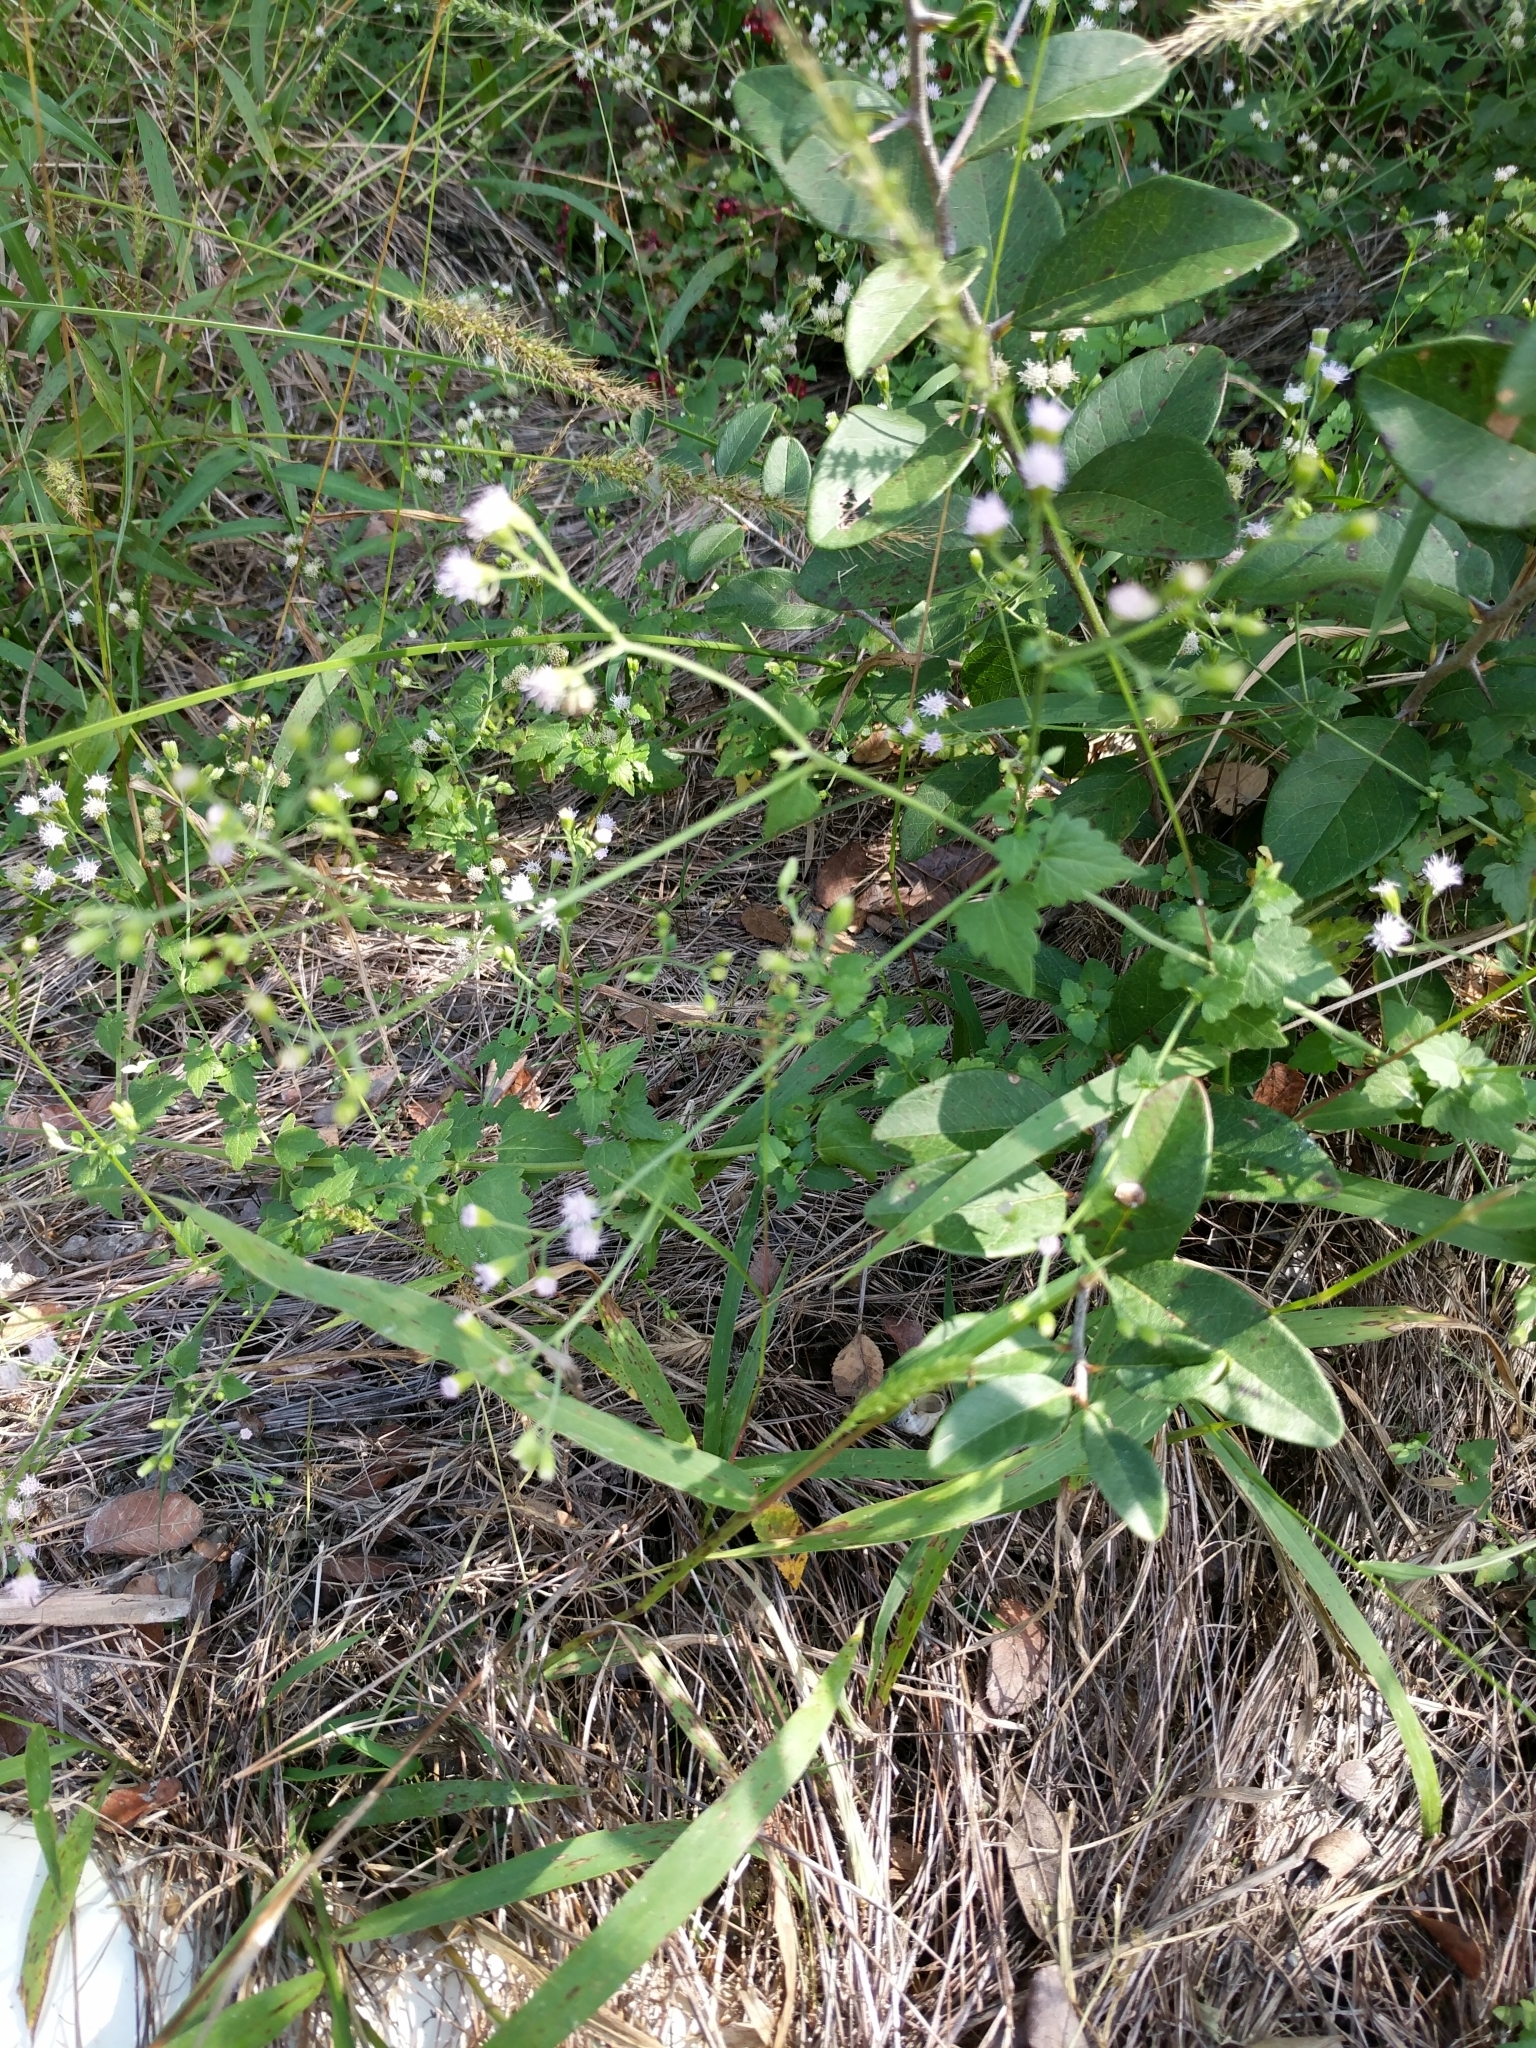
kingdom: Plantae
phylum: Tracheophyta
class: Magnoliopsida
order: Asterales
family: Asteraceae
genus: Fleischmannia
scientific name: Fleischmannia incarnata
